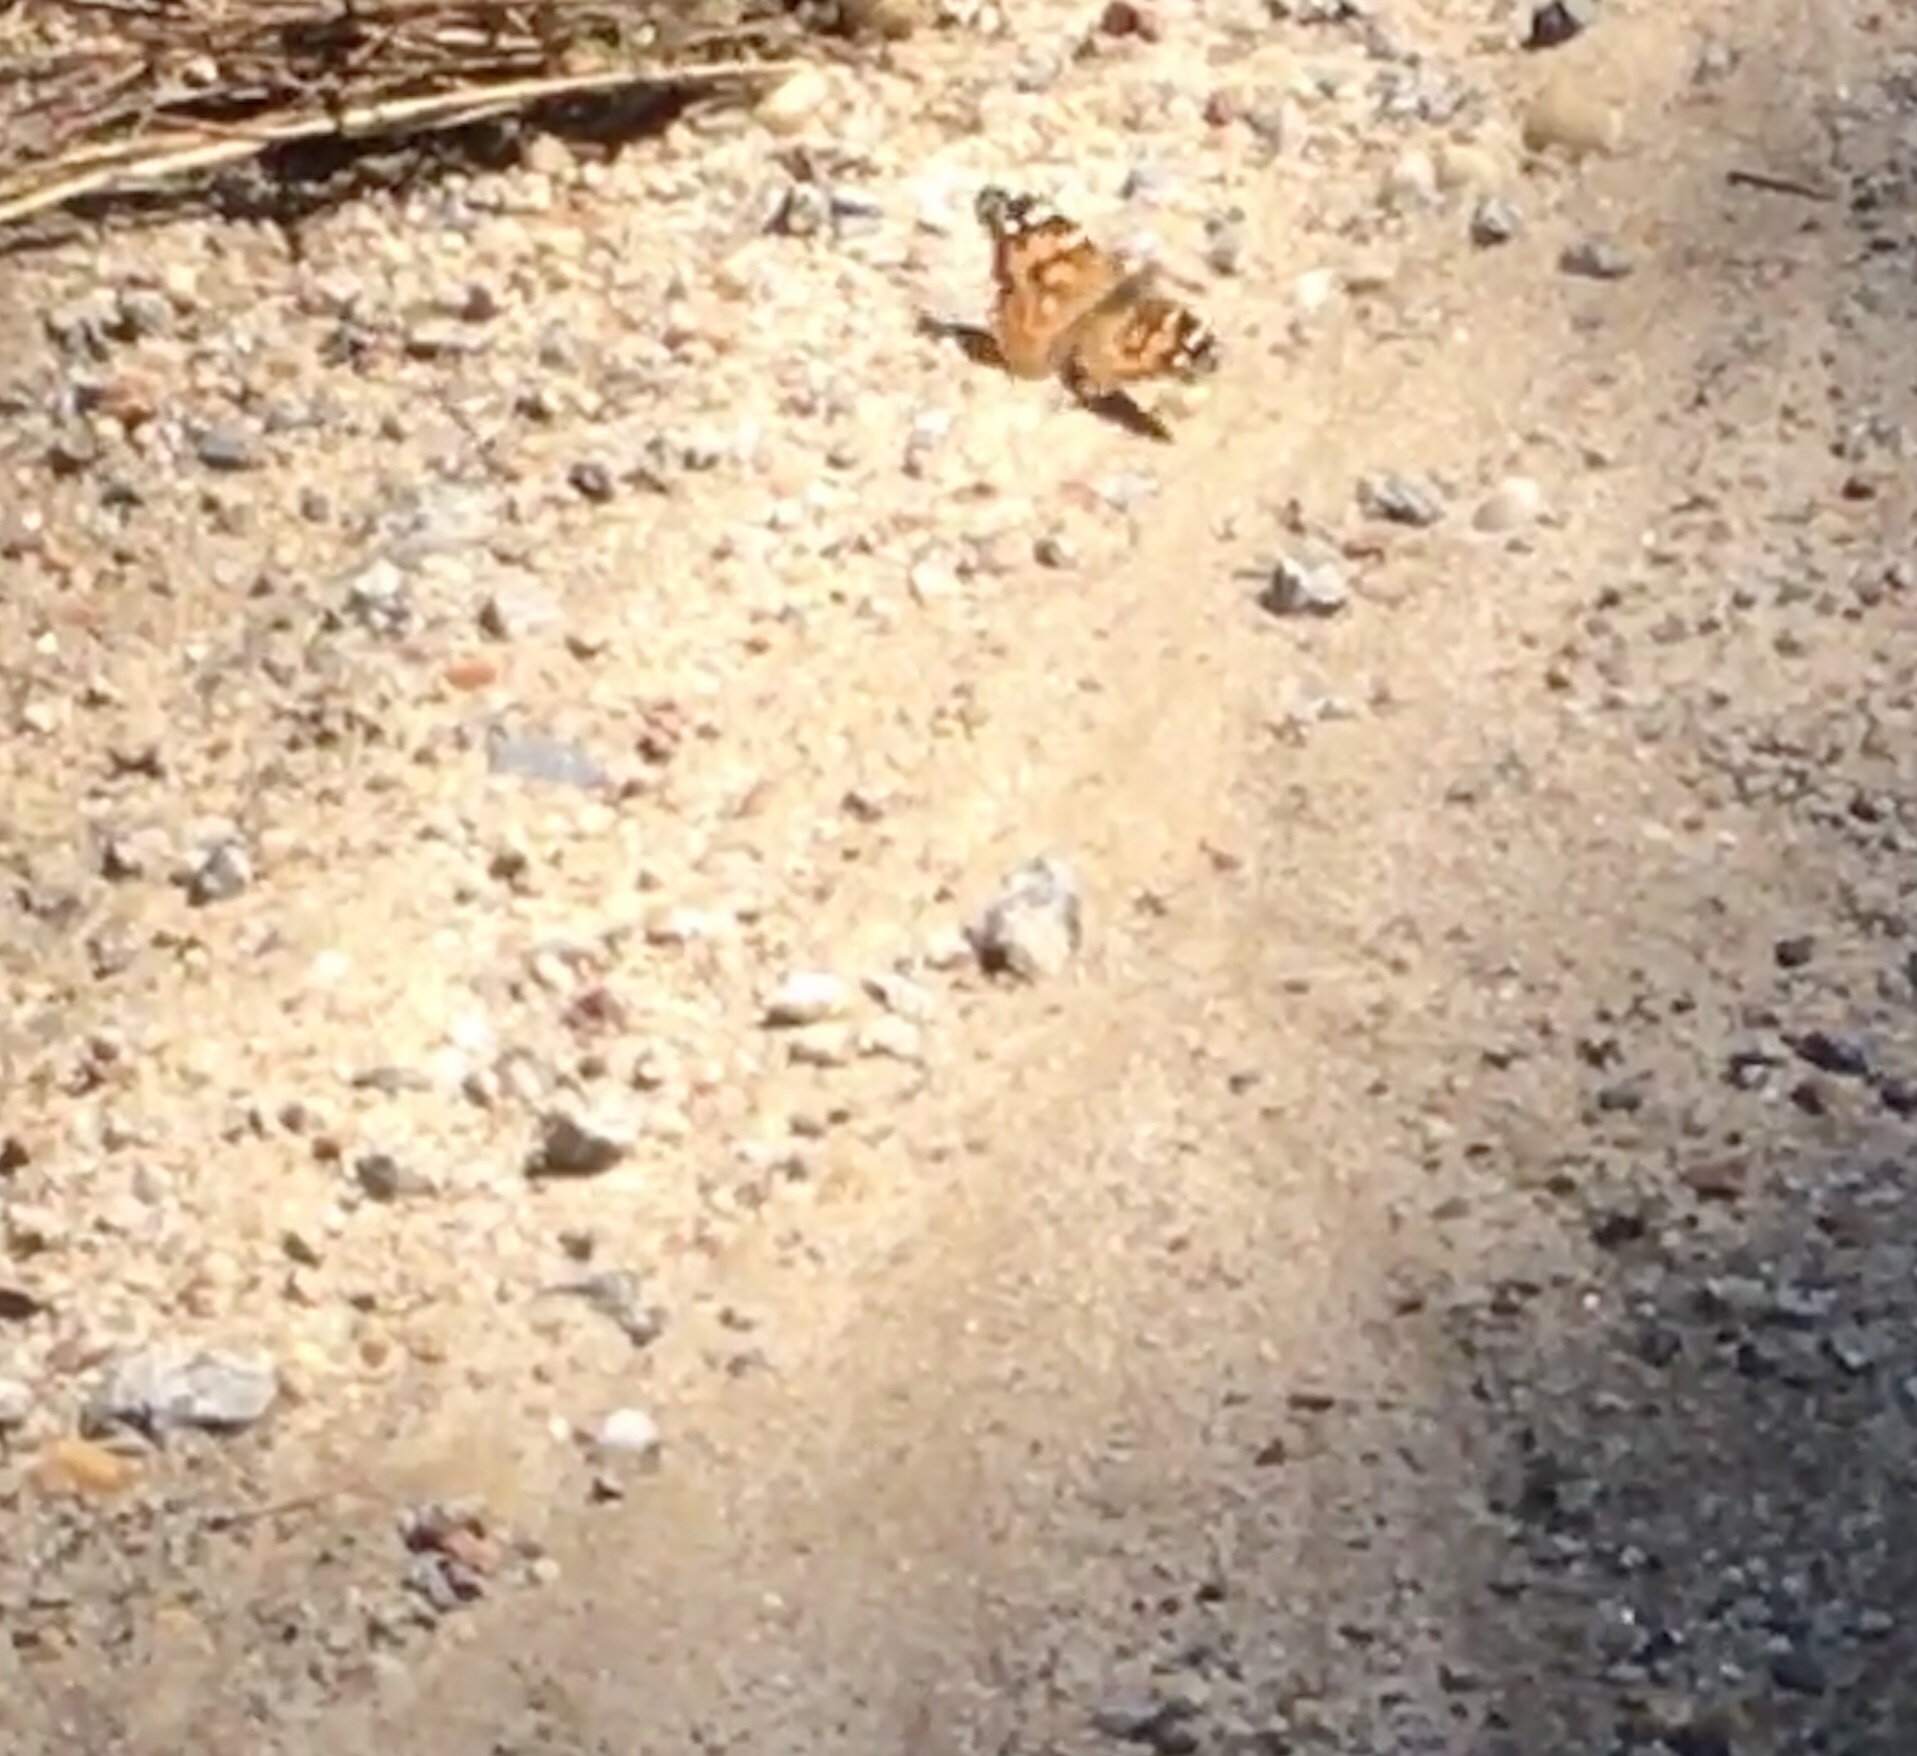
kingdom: Animalia
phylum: Arthropoda
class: Insecta
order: Lepidoptera
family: Nymphalidae
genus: Vanessa
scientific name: Vanessa cardui
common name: Painted lady
